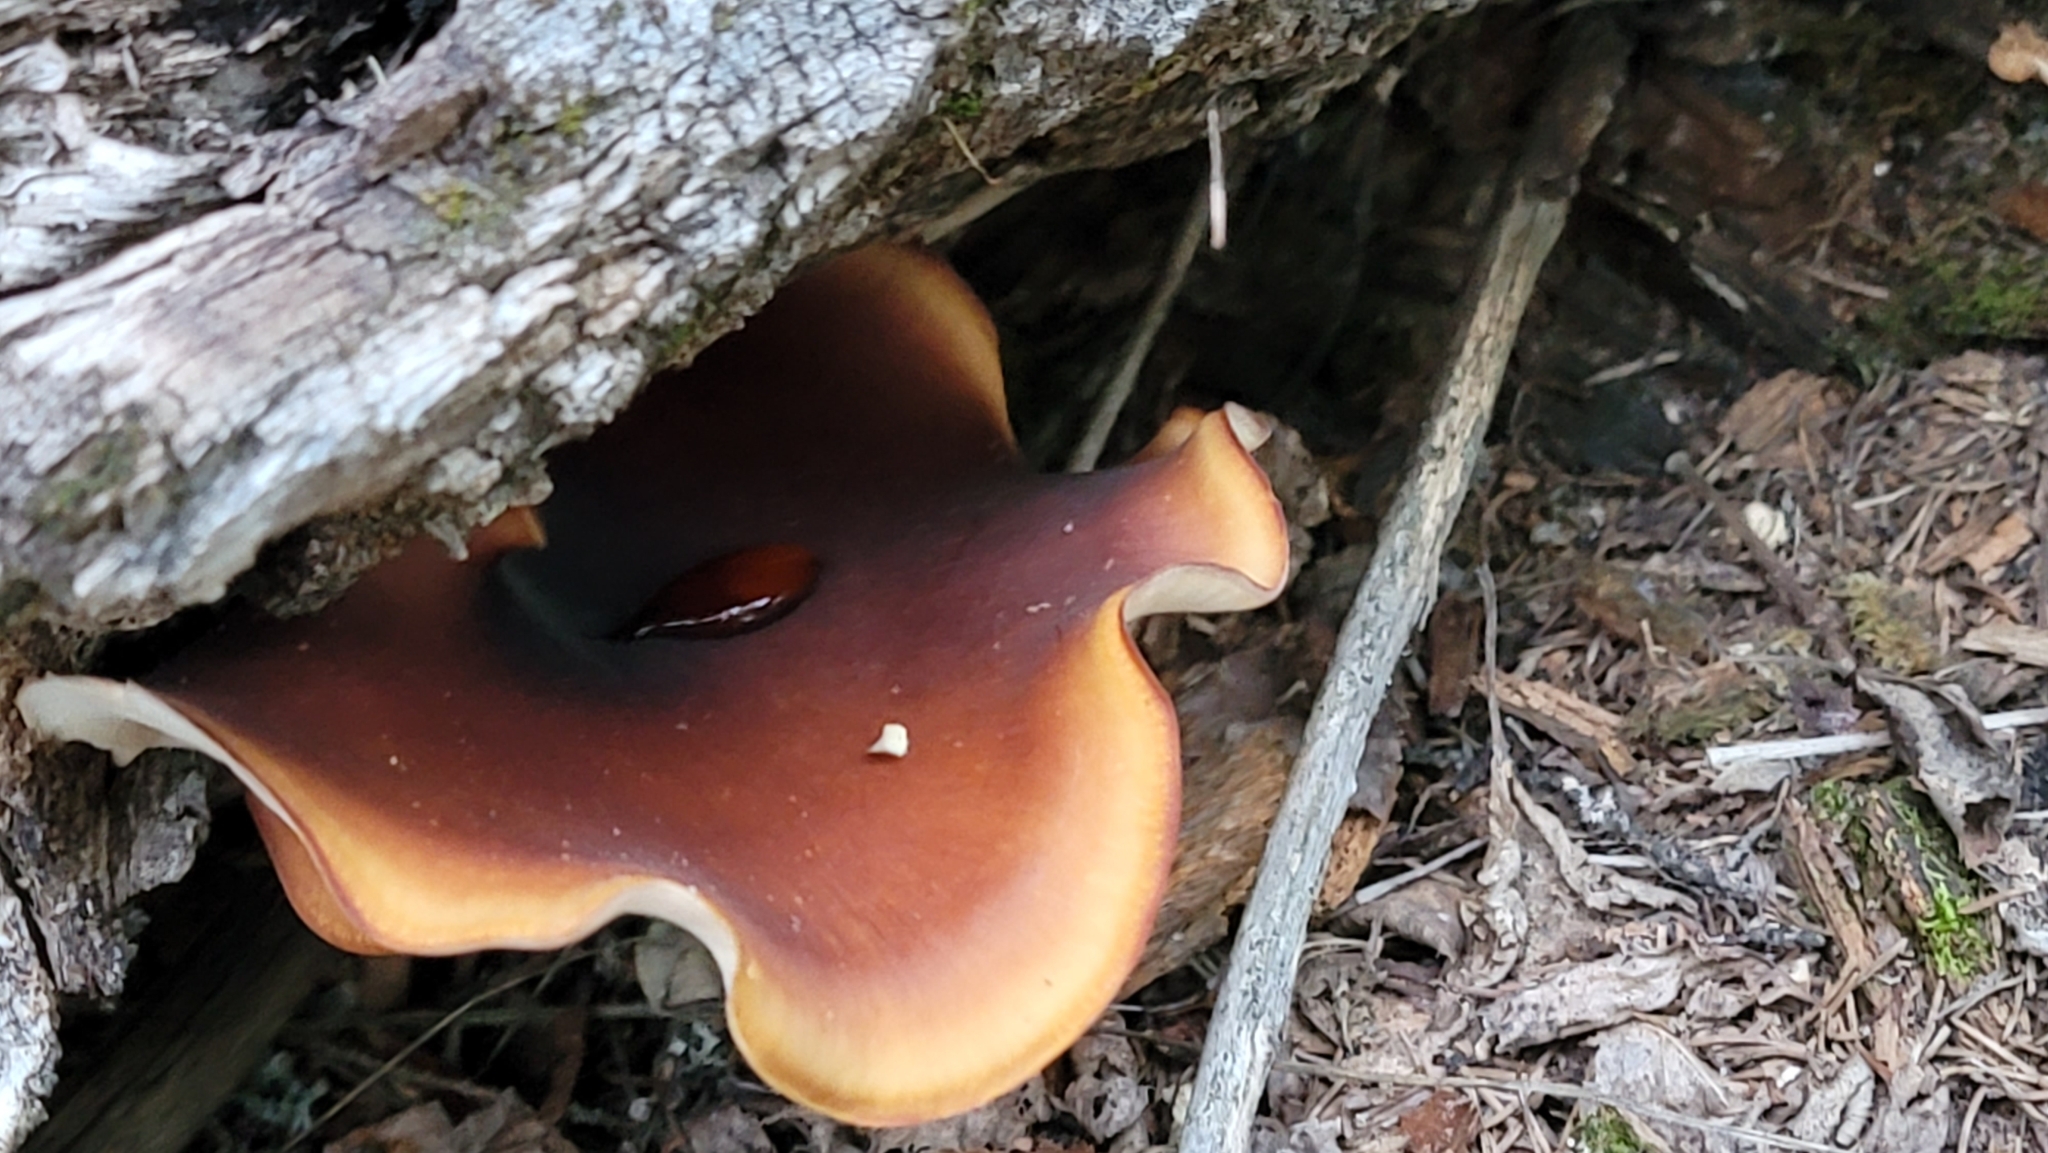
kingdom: Fungi
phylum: Basidiomycota
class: Agaricomycetes
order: Polyporales
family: Polyporaceae
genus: Picipes
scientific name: Picipes badius
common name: Bay polypore
